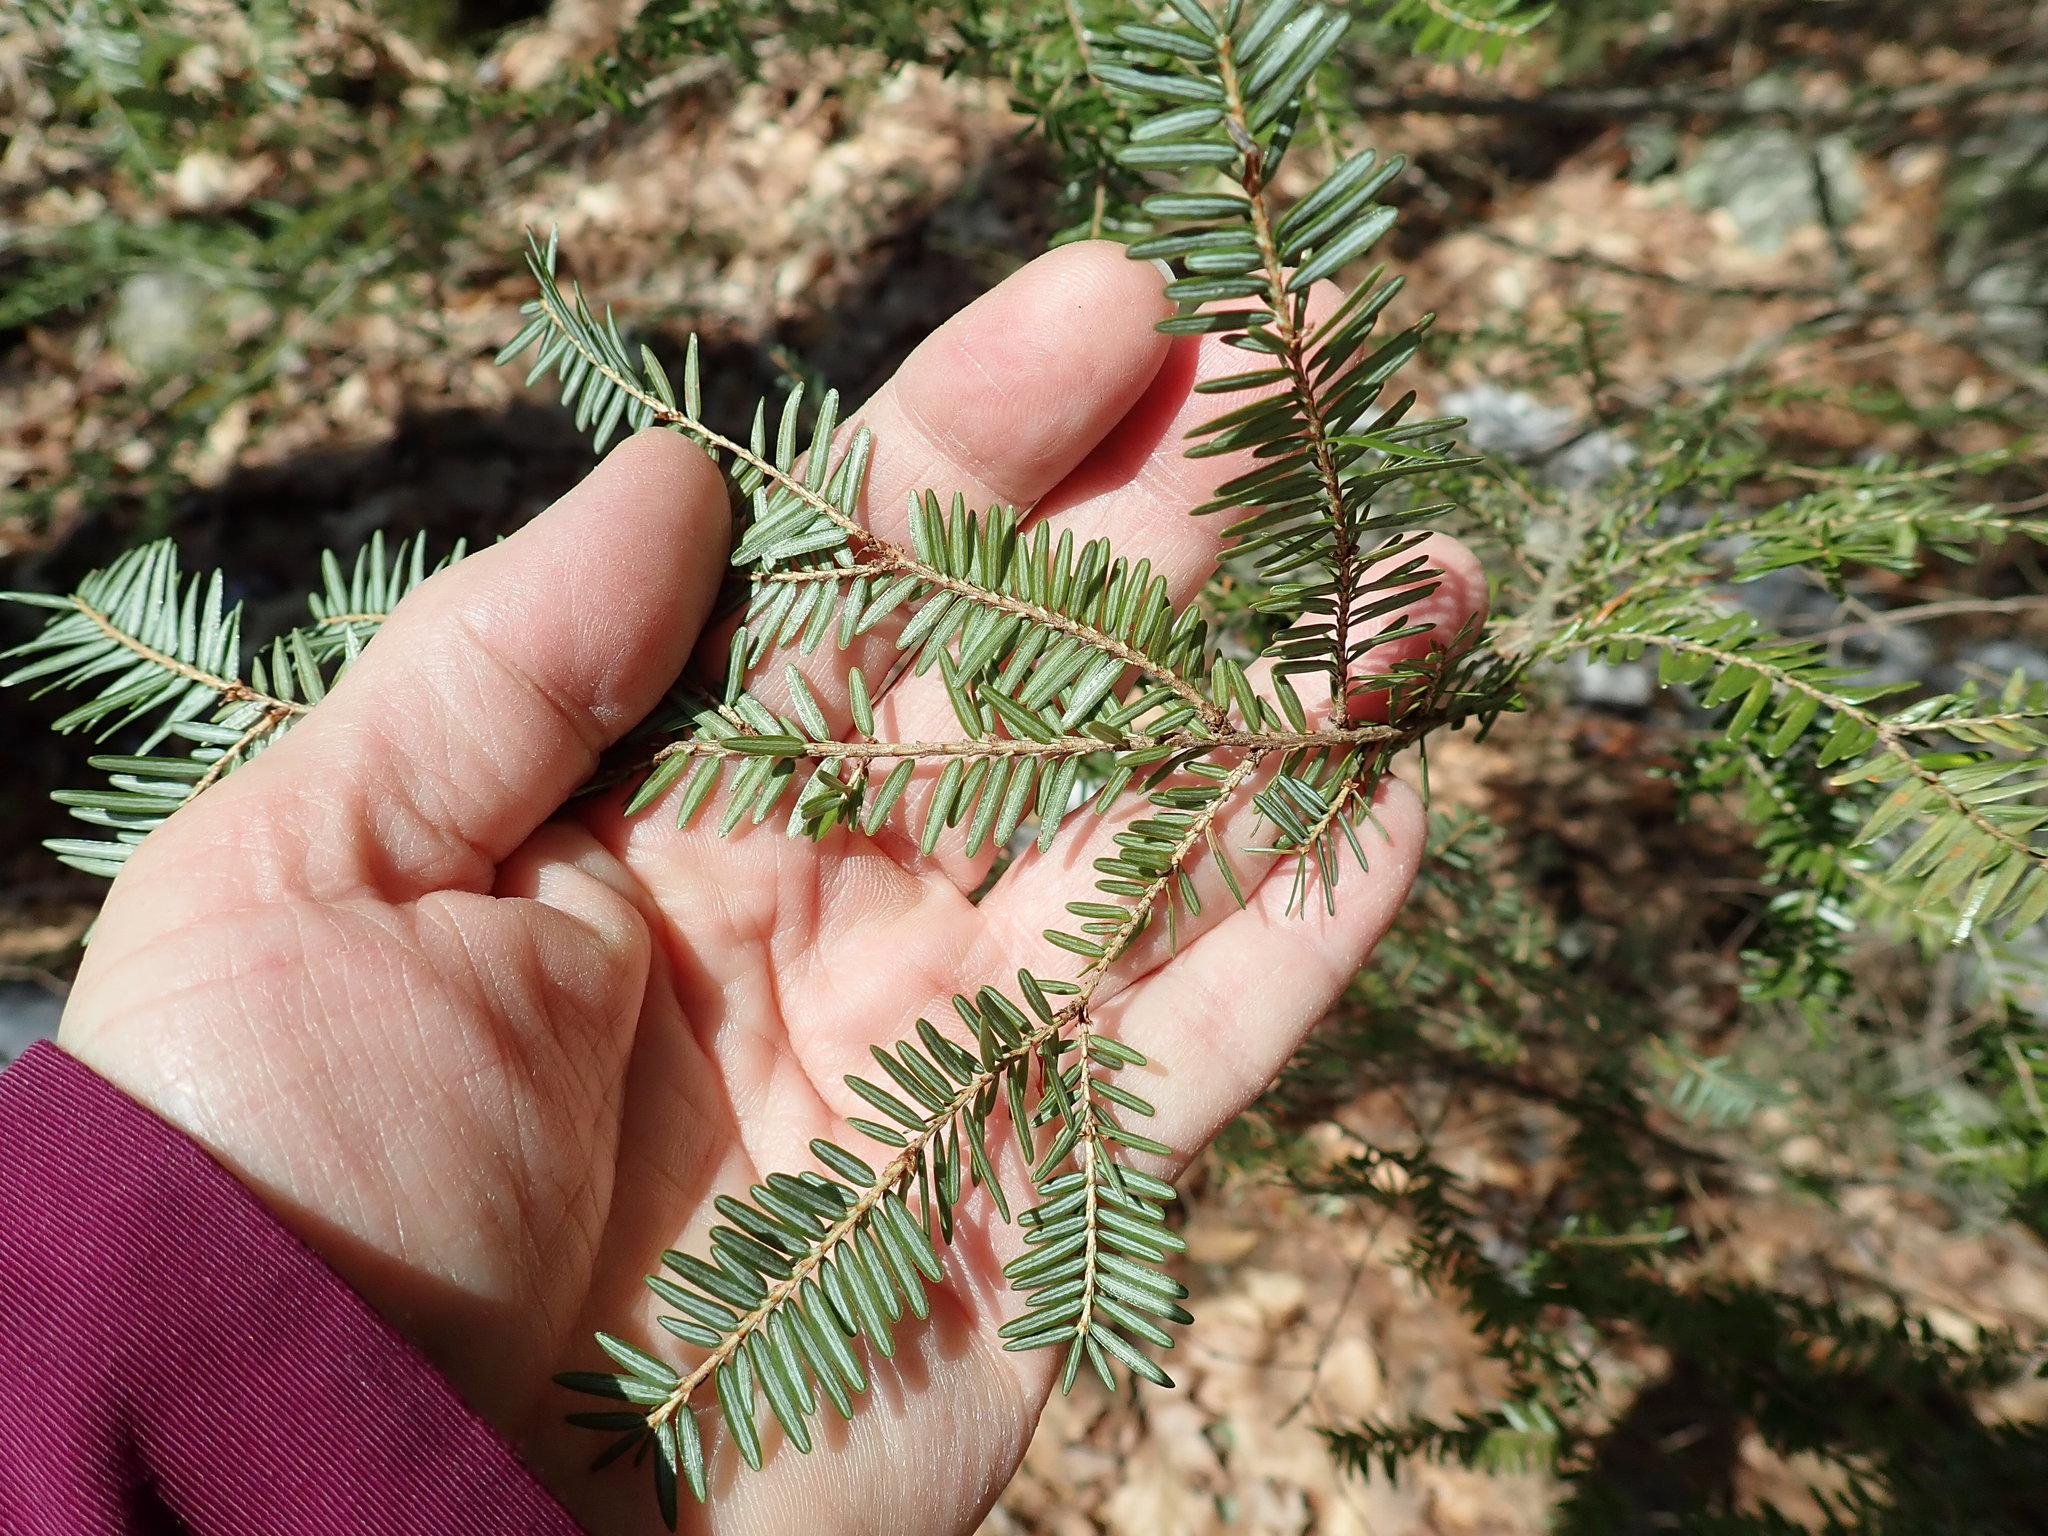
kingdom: Plantae
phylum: Tracheophyta
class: Pinopsida
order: Pinales
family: Pinaceae
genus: Tsuga
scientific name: Tsuga canadensis
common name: Eastern hemlock
